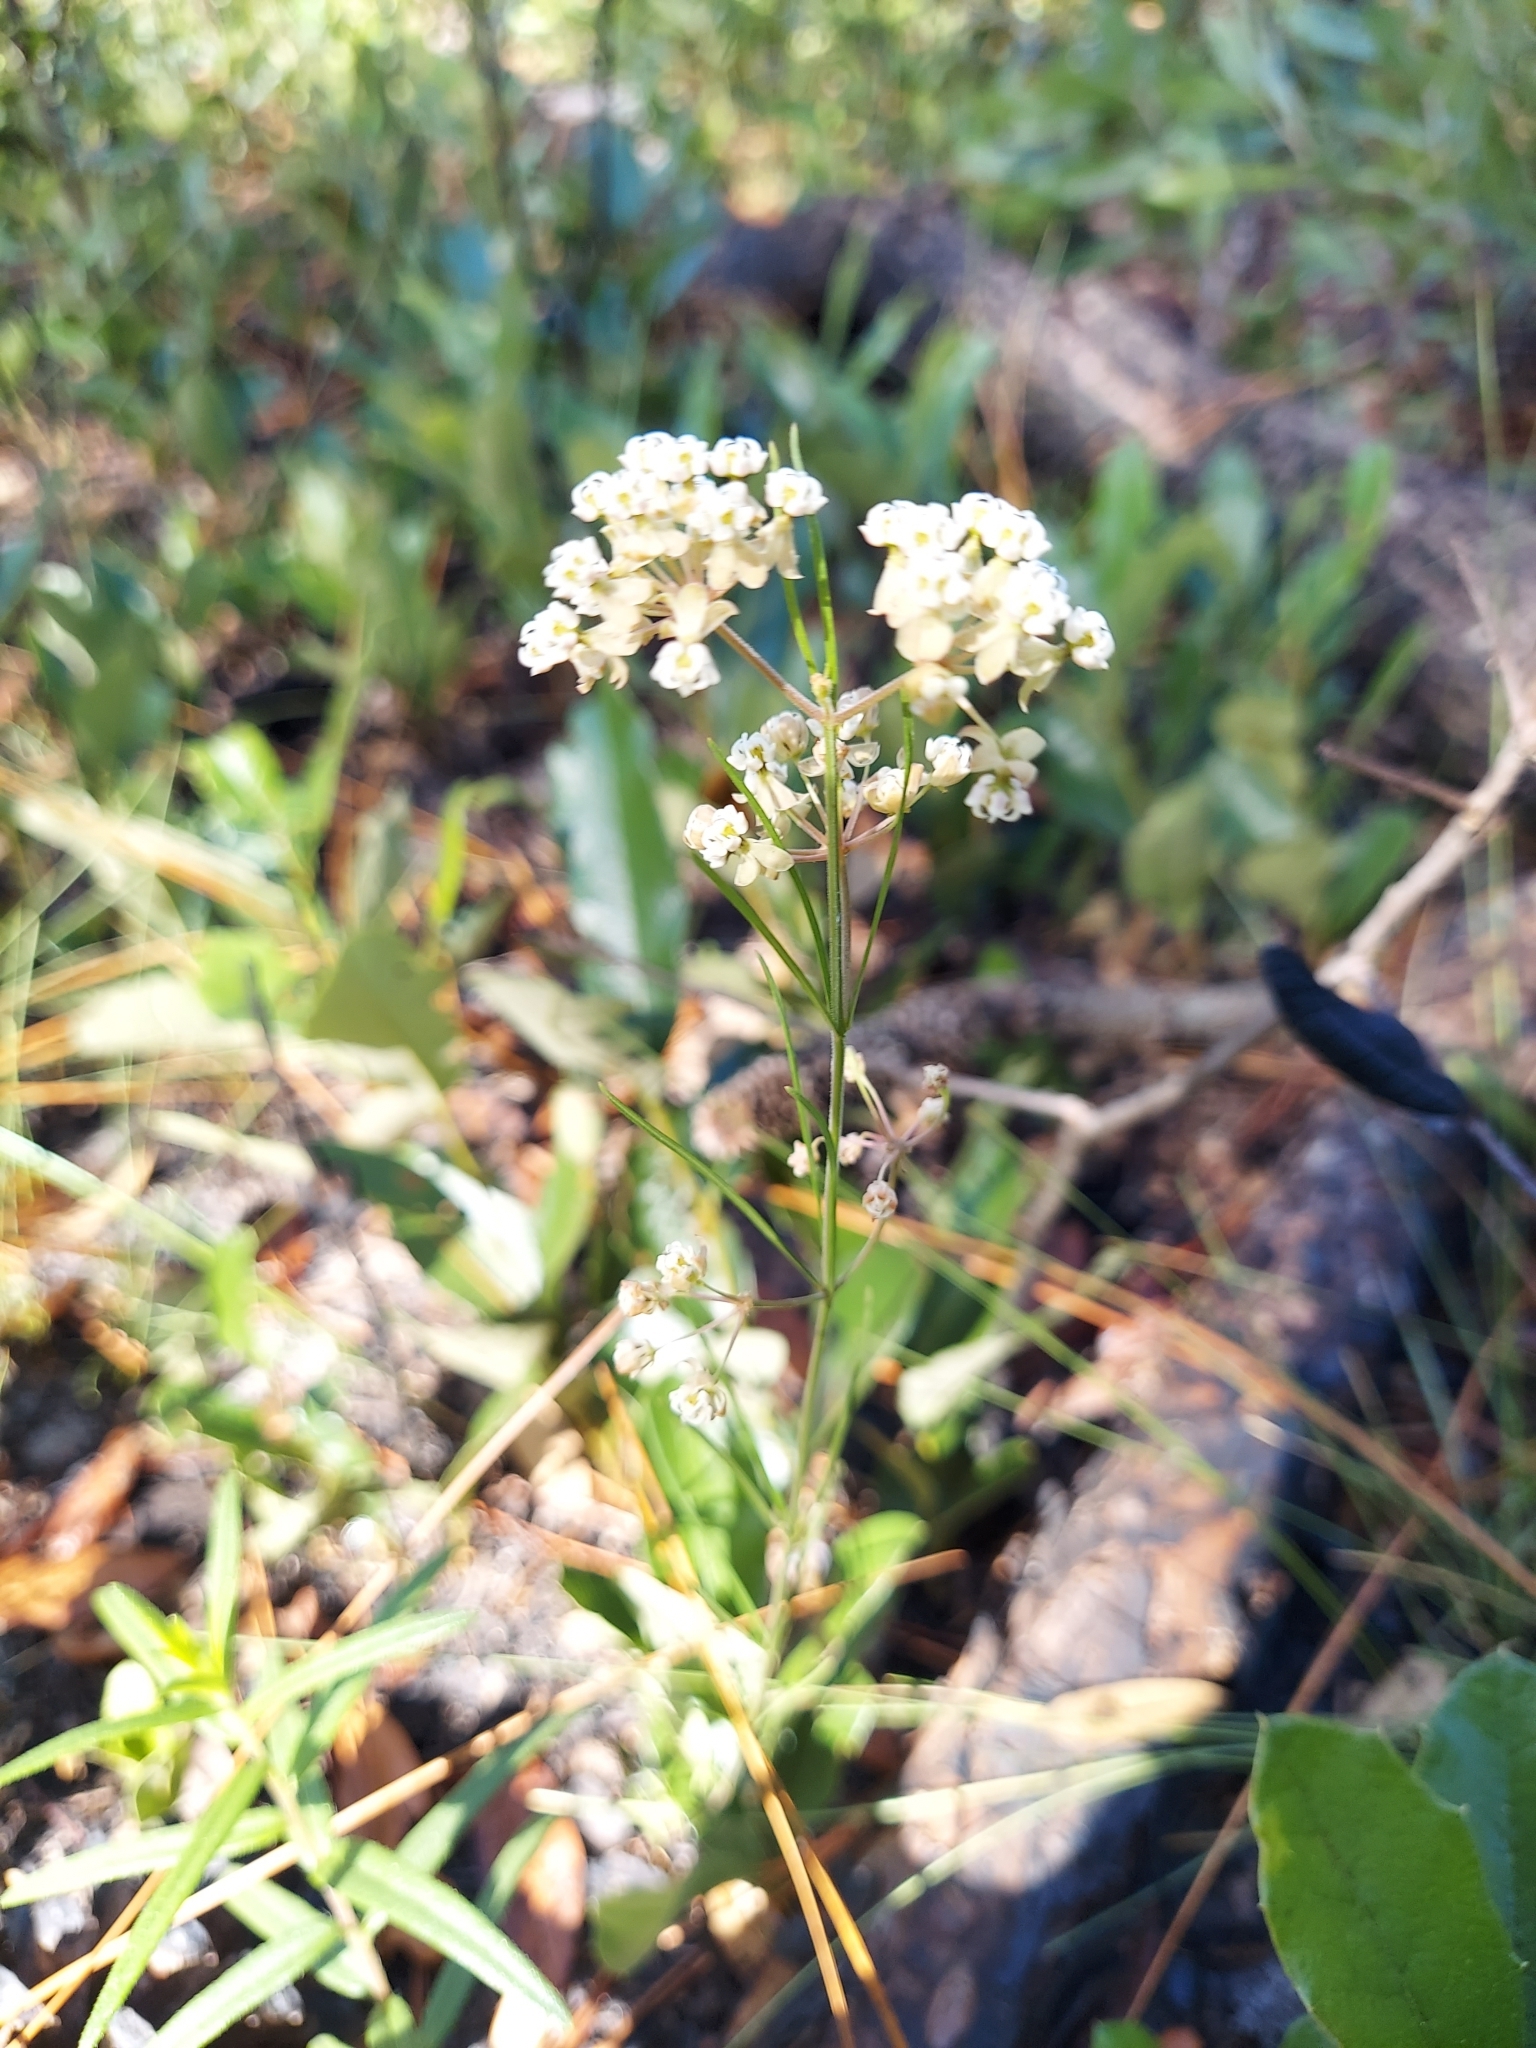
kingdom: Plantae
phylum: Tracheophyta
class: Magnoliopsida
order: Gentianales
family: Apocynaceae
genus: Asclepias
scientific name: Asclepias verticillata
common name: Eastern whorled milkweed
